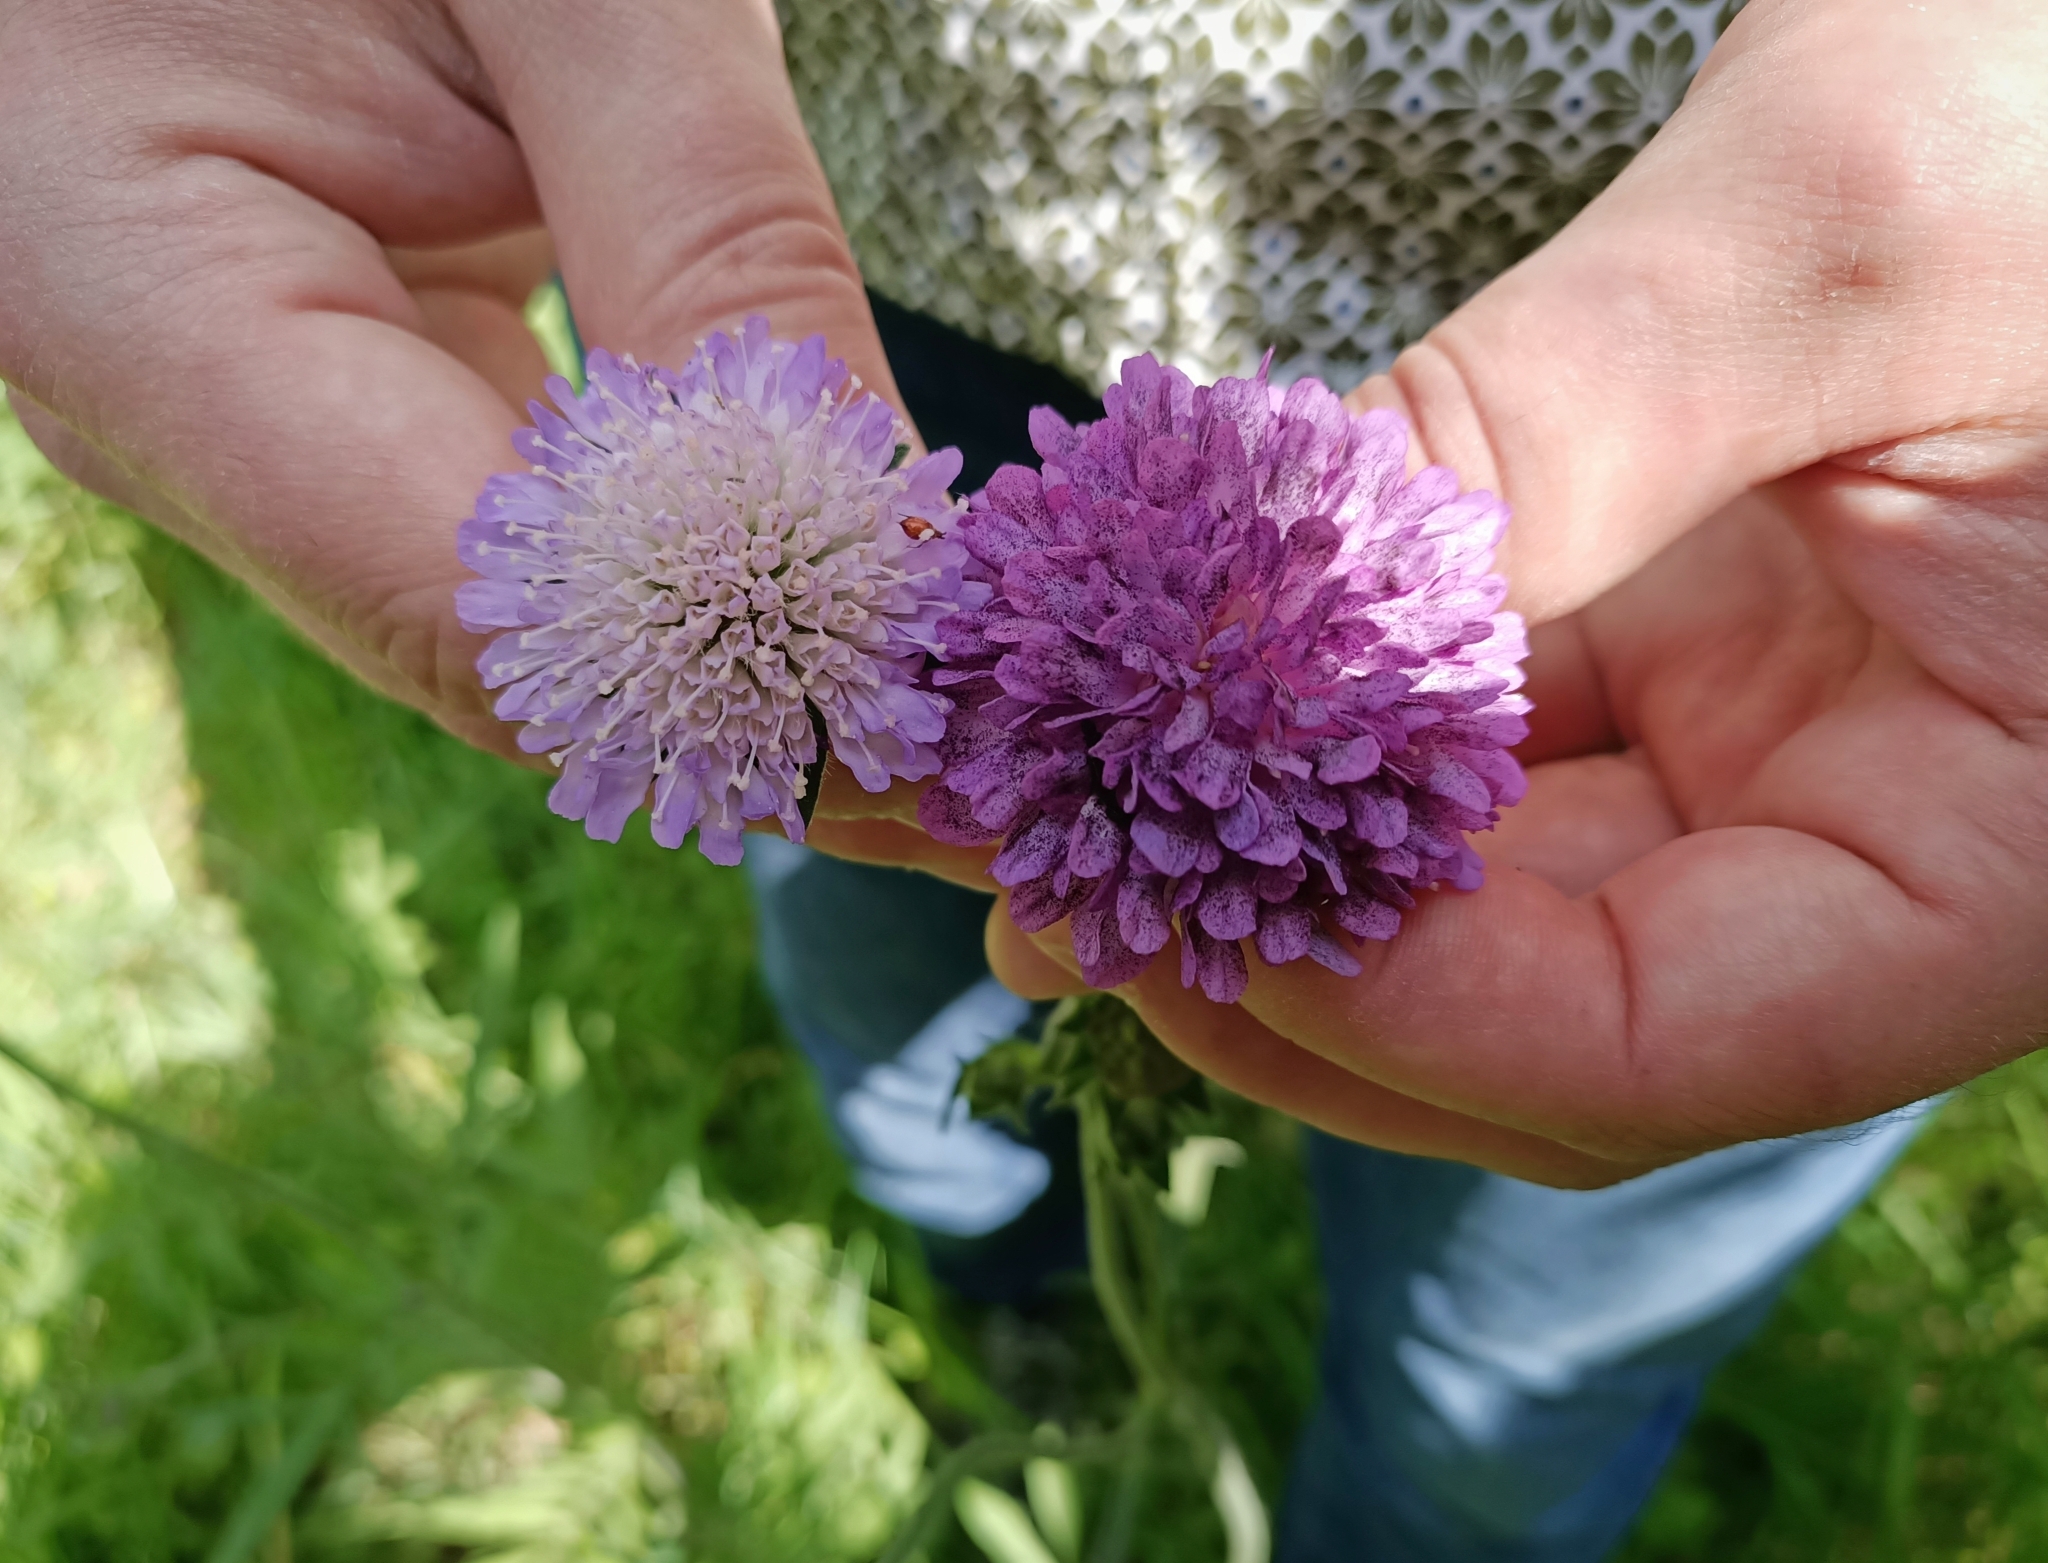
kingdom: Plantae
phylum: Tracheophyta
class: Magnoliopsida
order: Dipsacales
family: Caprifoliaceae
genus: Knautia
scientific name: Knautia arvensis
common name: Field scabiosa
